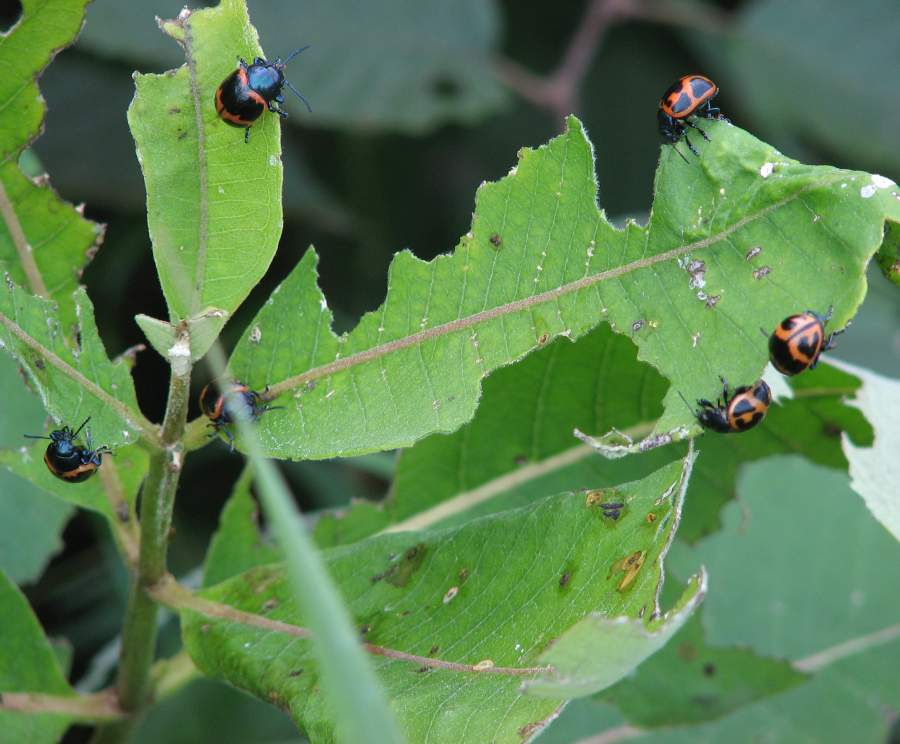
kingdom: Animalia
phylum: Arthropoda
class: Insecta
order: Coleoptera
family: Chrysomelidae
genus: Labidomera
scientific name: Labidomera clivicollis
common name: Swamp milkweed leaf beetle
